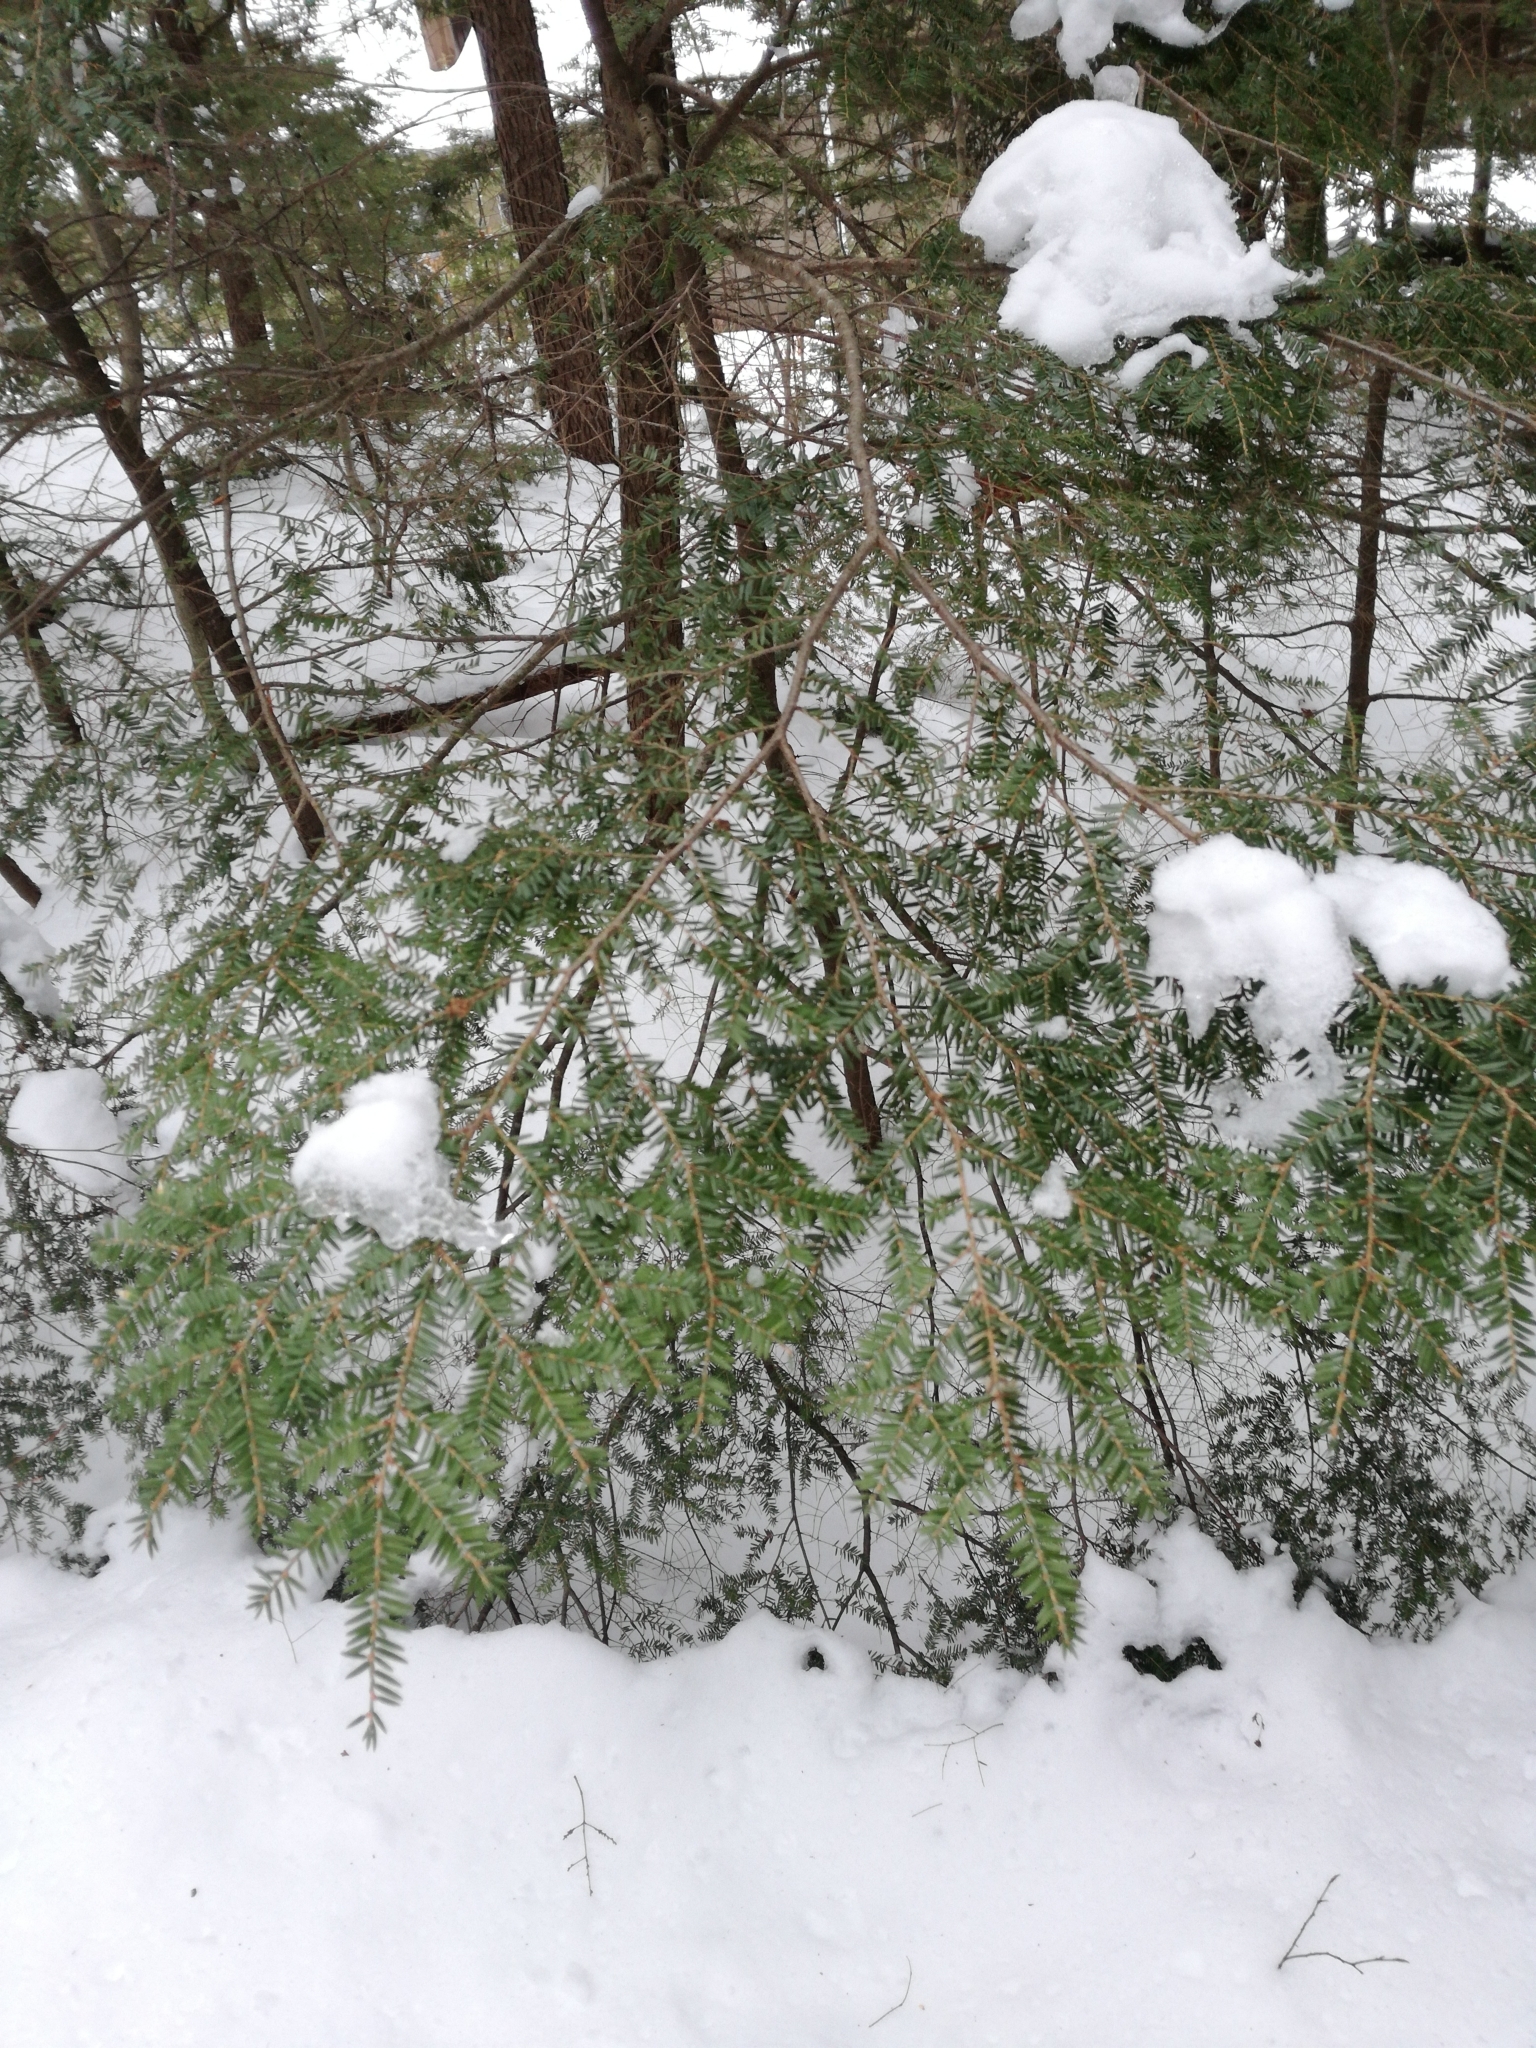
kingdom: Plantae
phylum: Tracheophyta
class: Pinopsida
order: Pinales
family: Pinaceae
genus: Tsuga
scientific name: Tsuga canadensis
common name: Eastern hemlock
